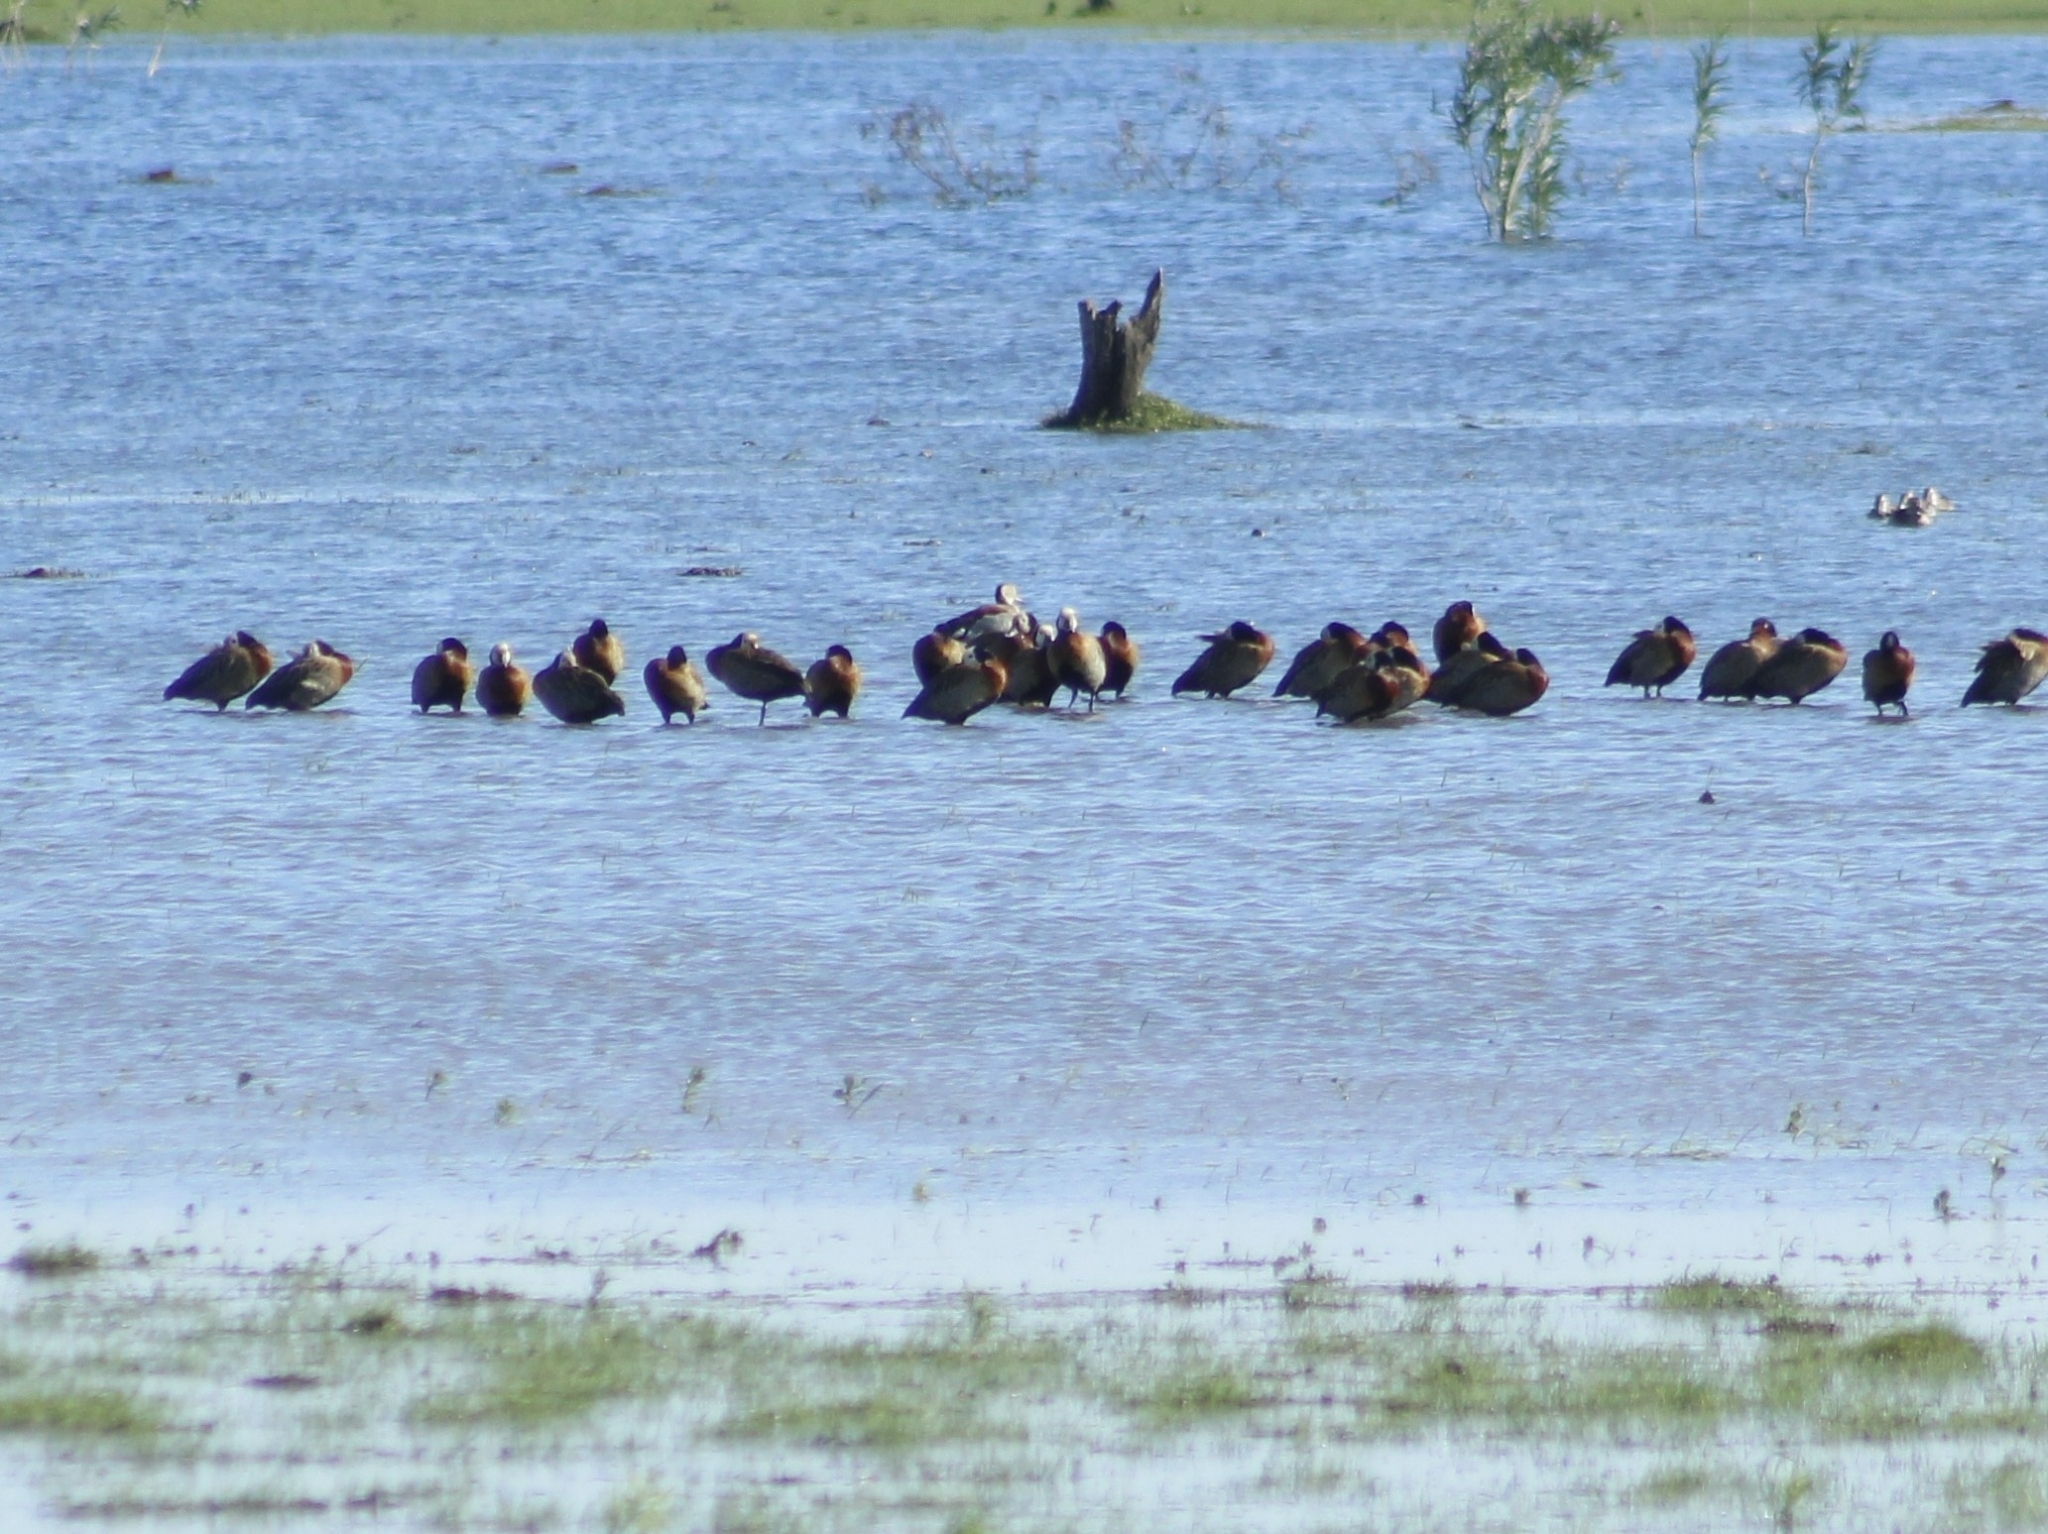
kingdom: Animalia
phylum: Chordata
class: Aves
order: Anseriformes
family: Anatidae
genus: Dendrocygna
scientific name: Dendrocygna viduata
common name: White-faced whistling duck
